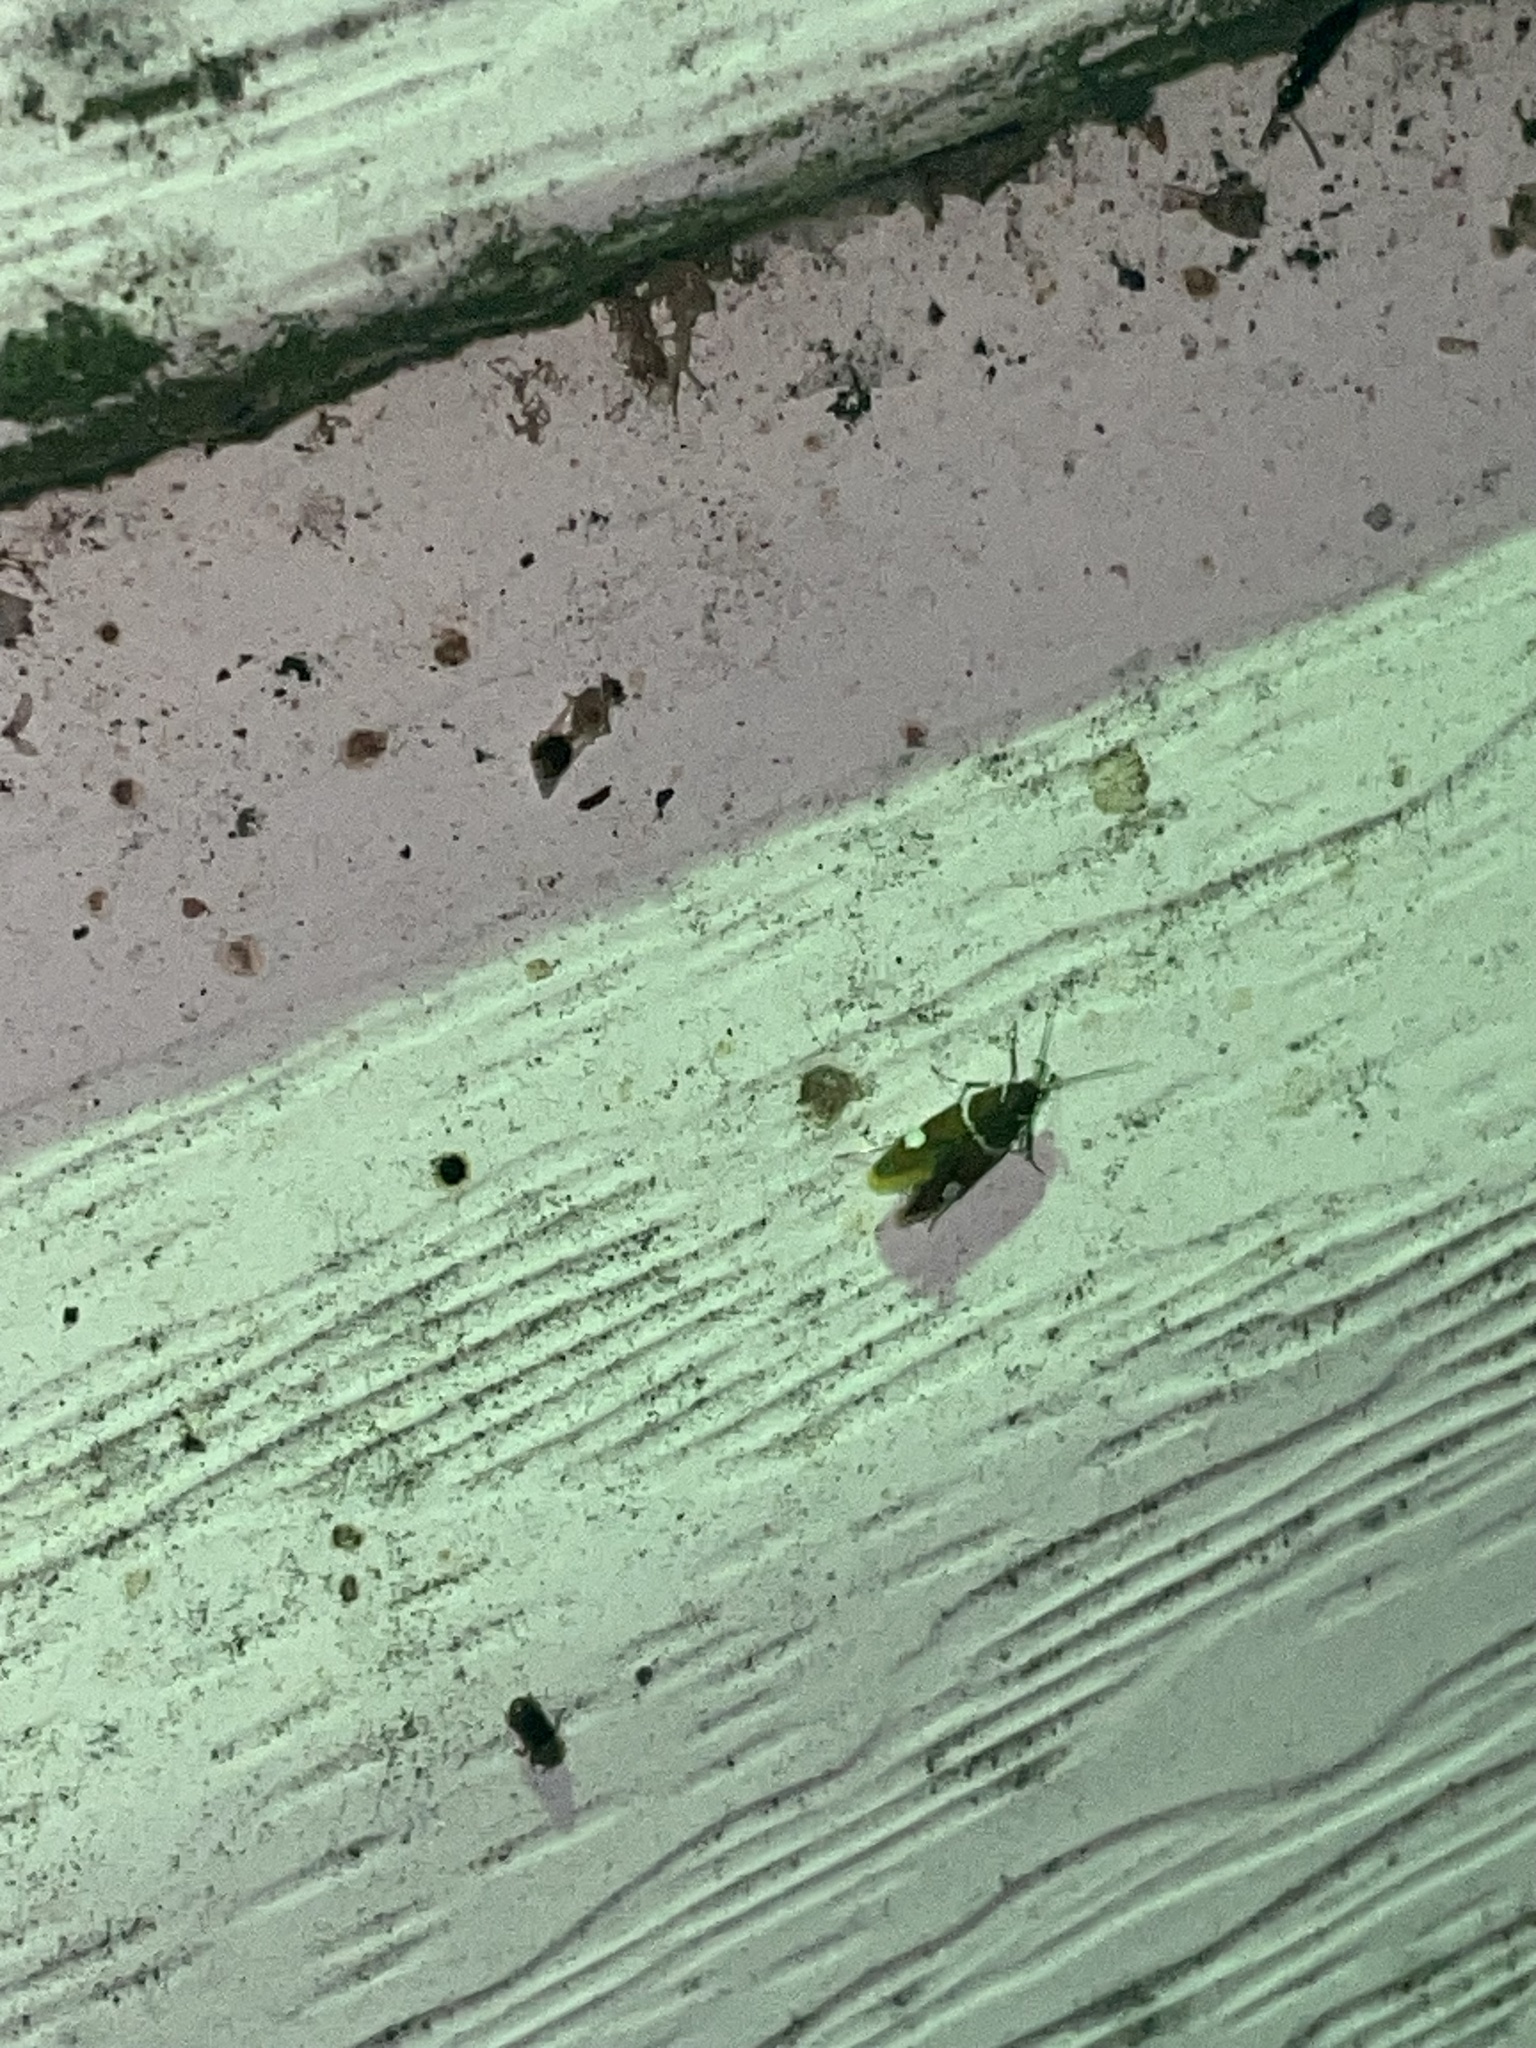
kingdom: Animalia
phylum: Arthropoda
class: Insecta
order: Lepidoptera
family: Oecophoridae
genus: Promalactis
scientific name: Promalactis suzukiella
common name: Moth
